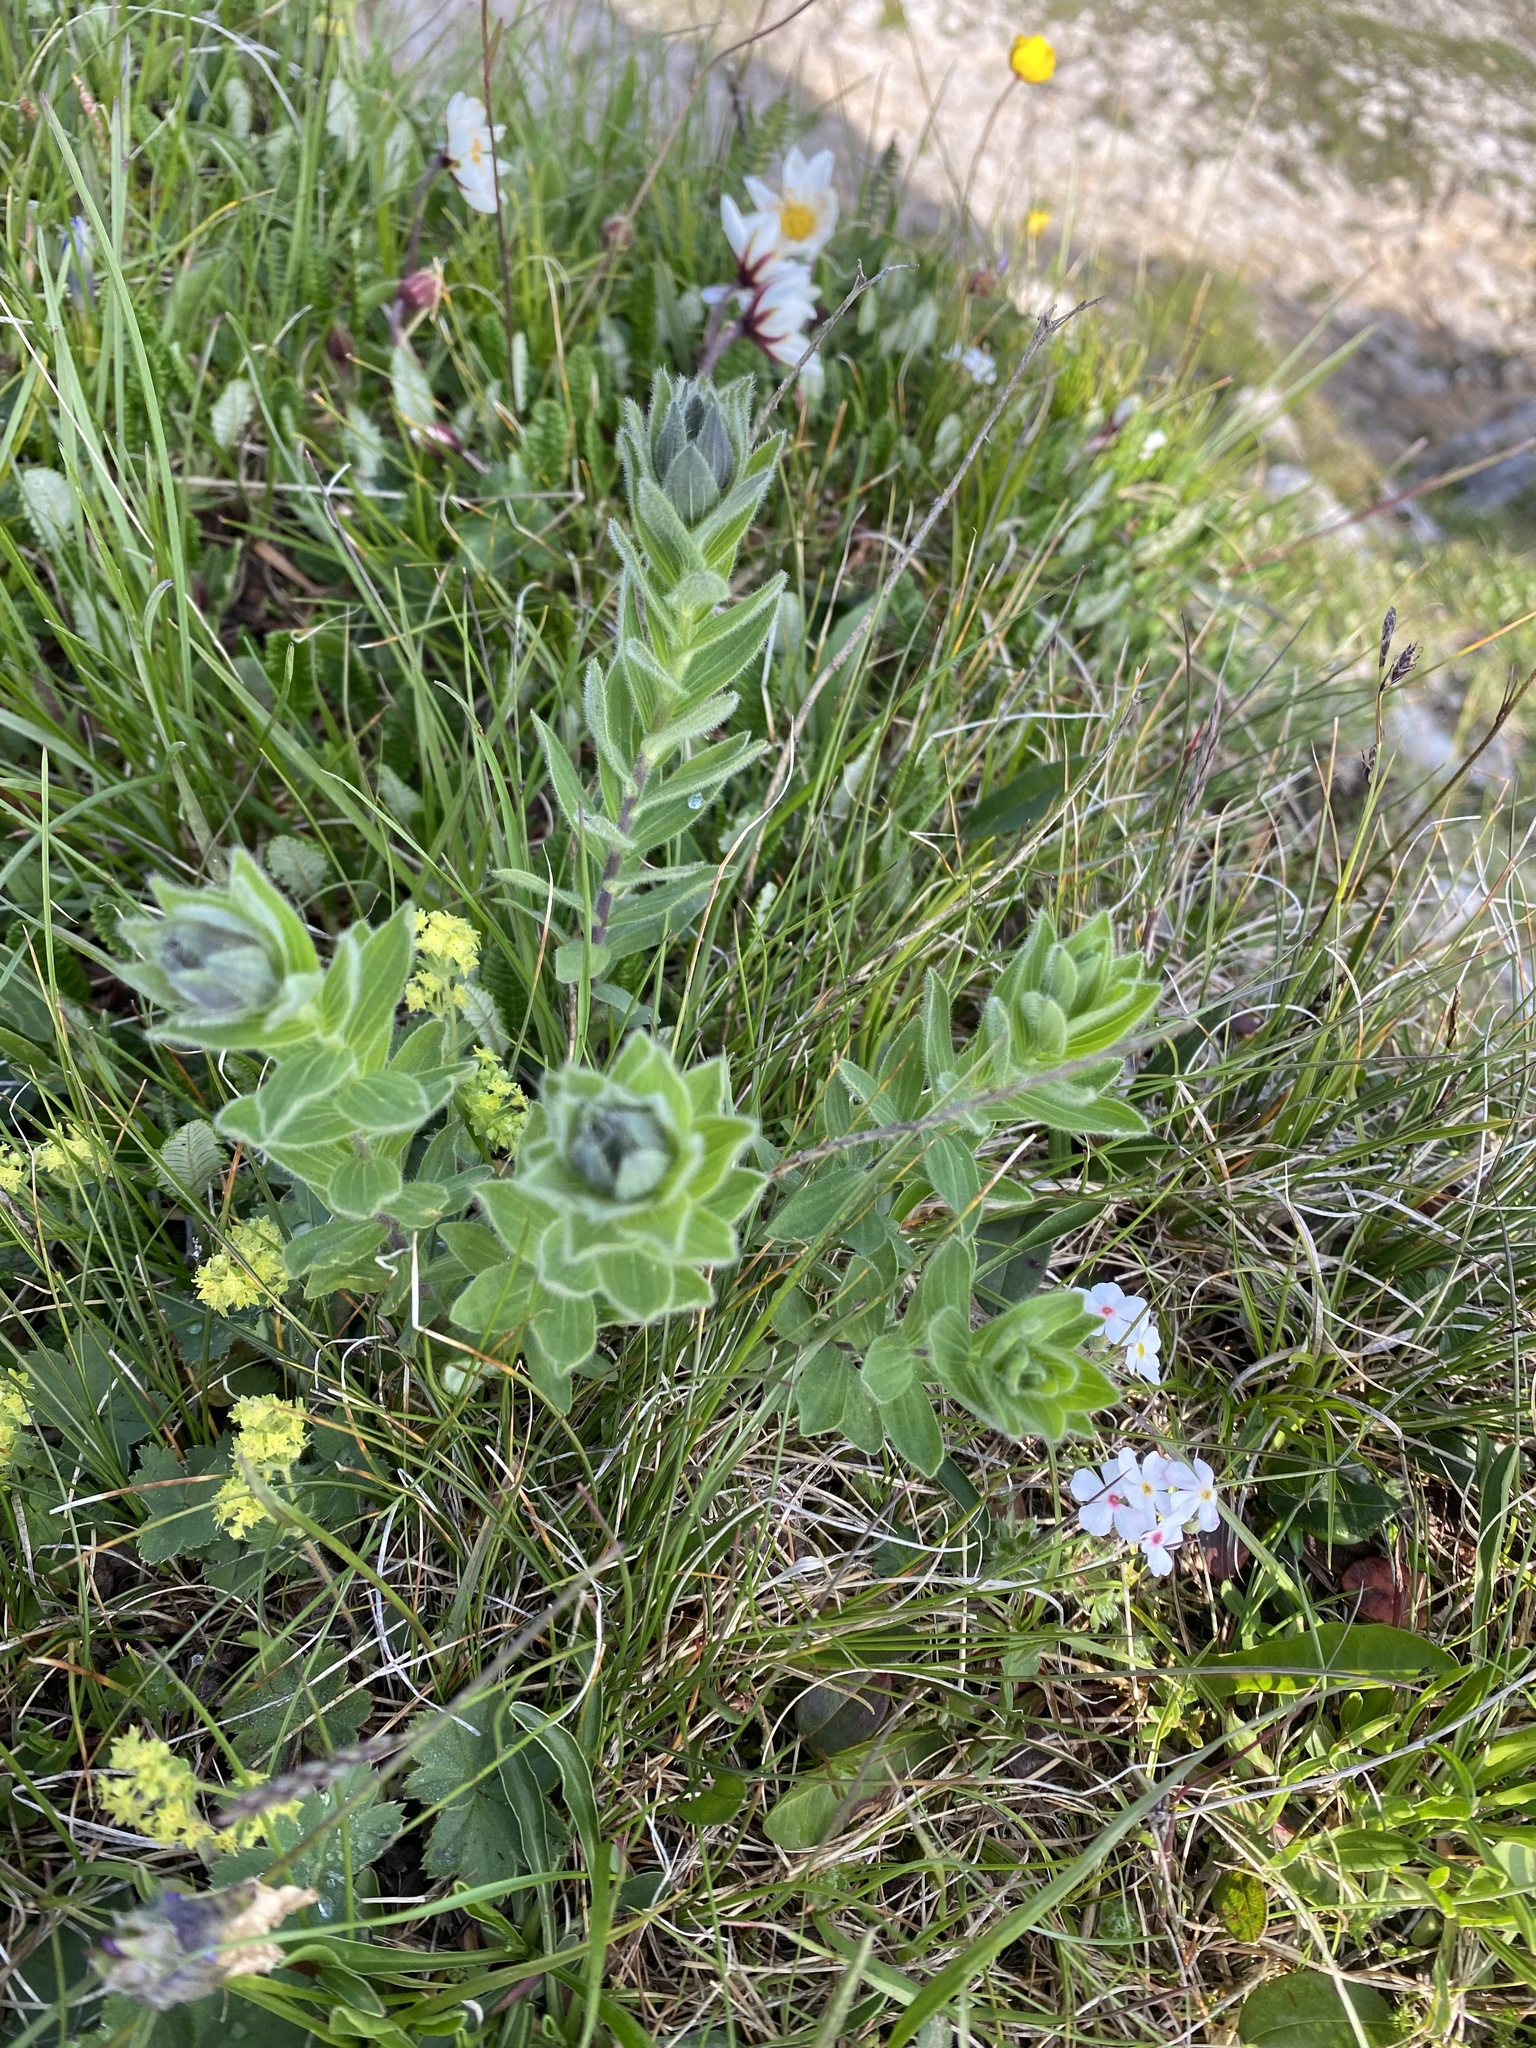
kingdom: Plantae
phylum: Tracheophyta
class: Magnoliopsida
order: Malpighiales
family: Linaceae
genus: Linum
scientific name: Linum hypericifolium
